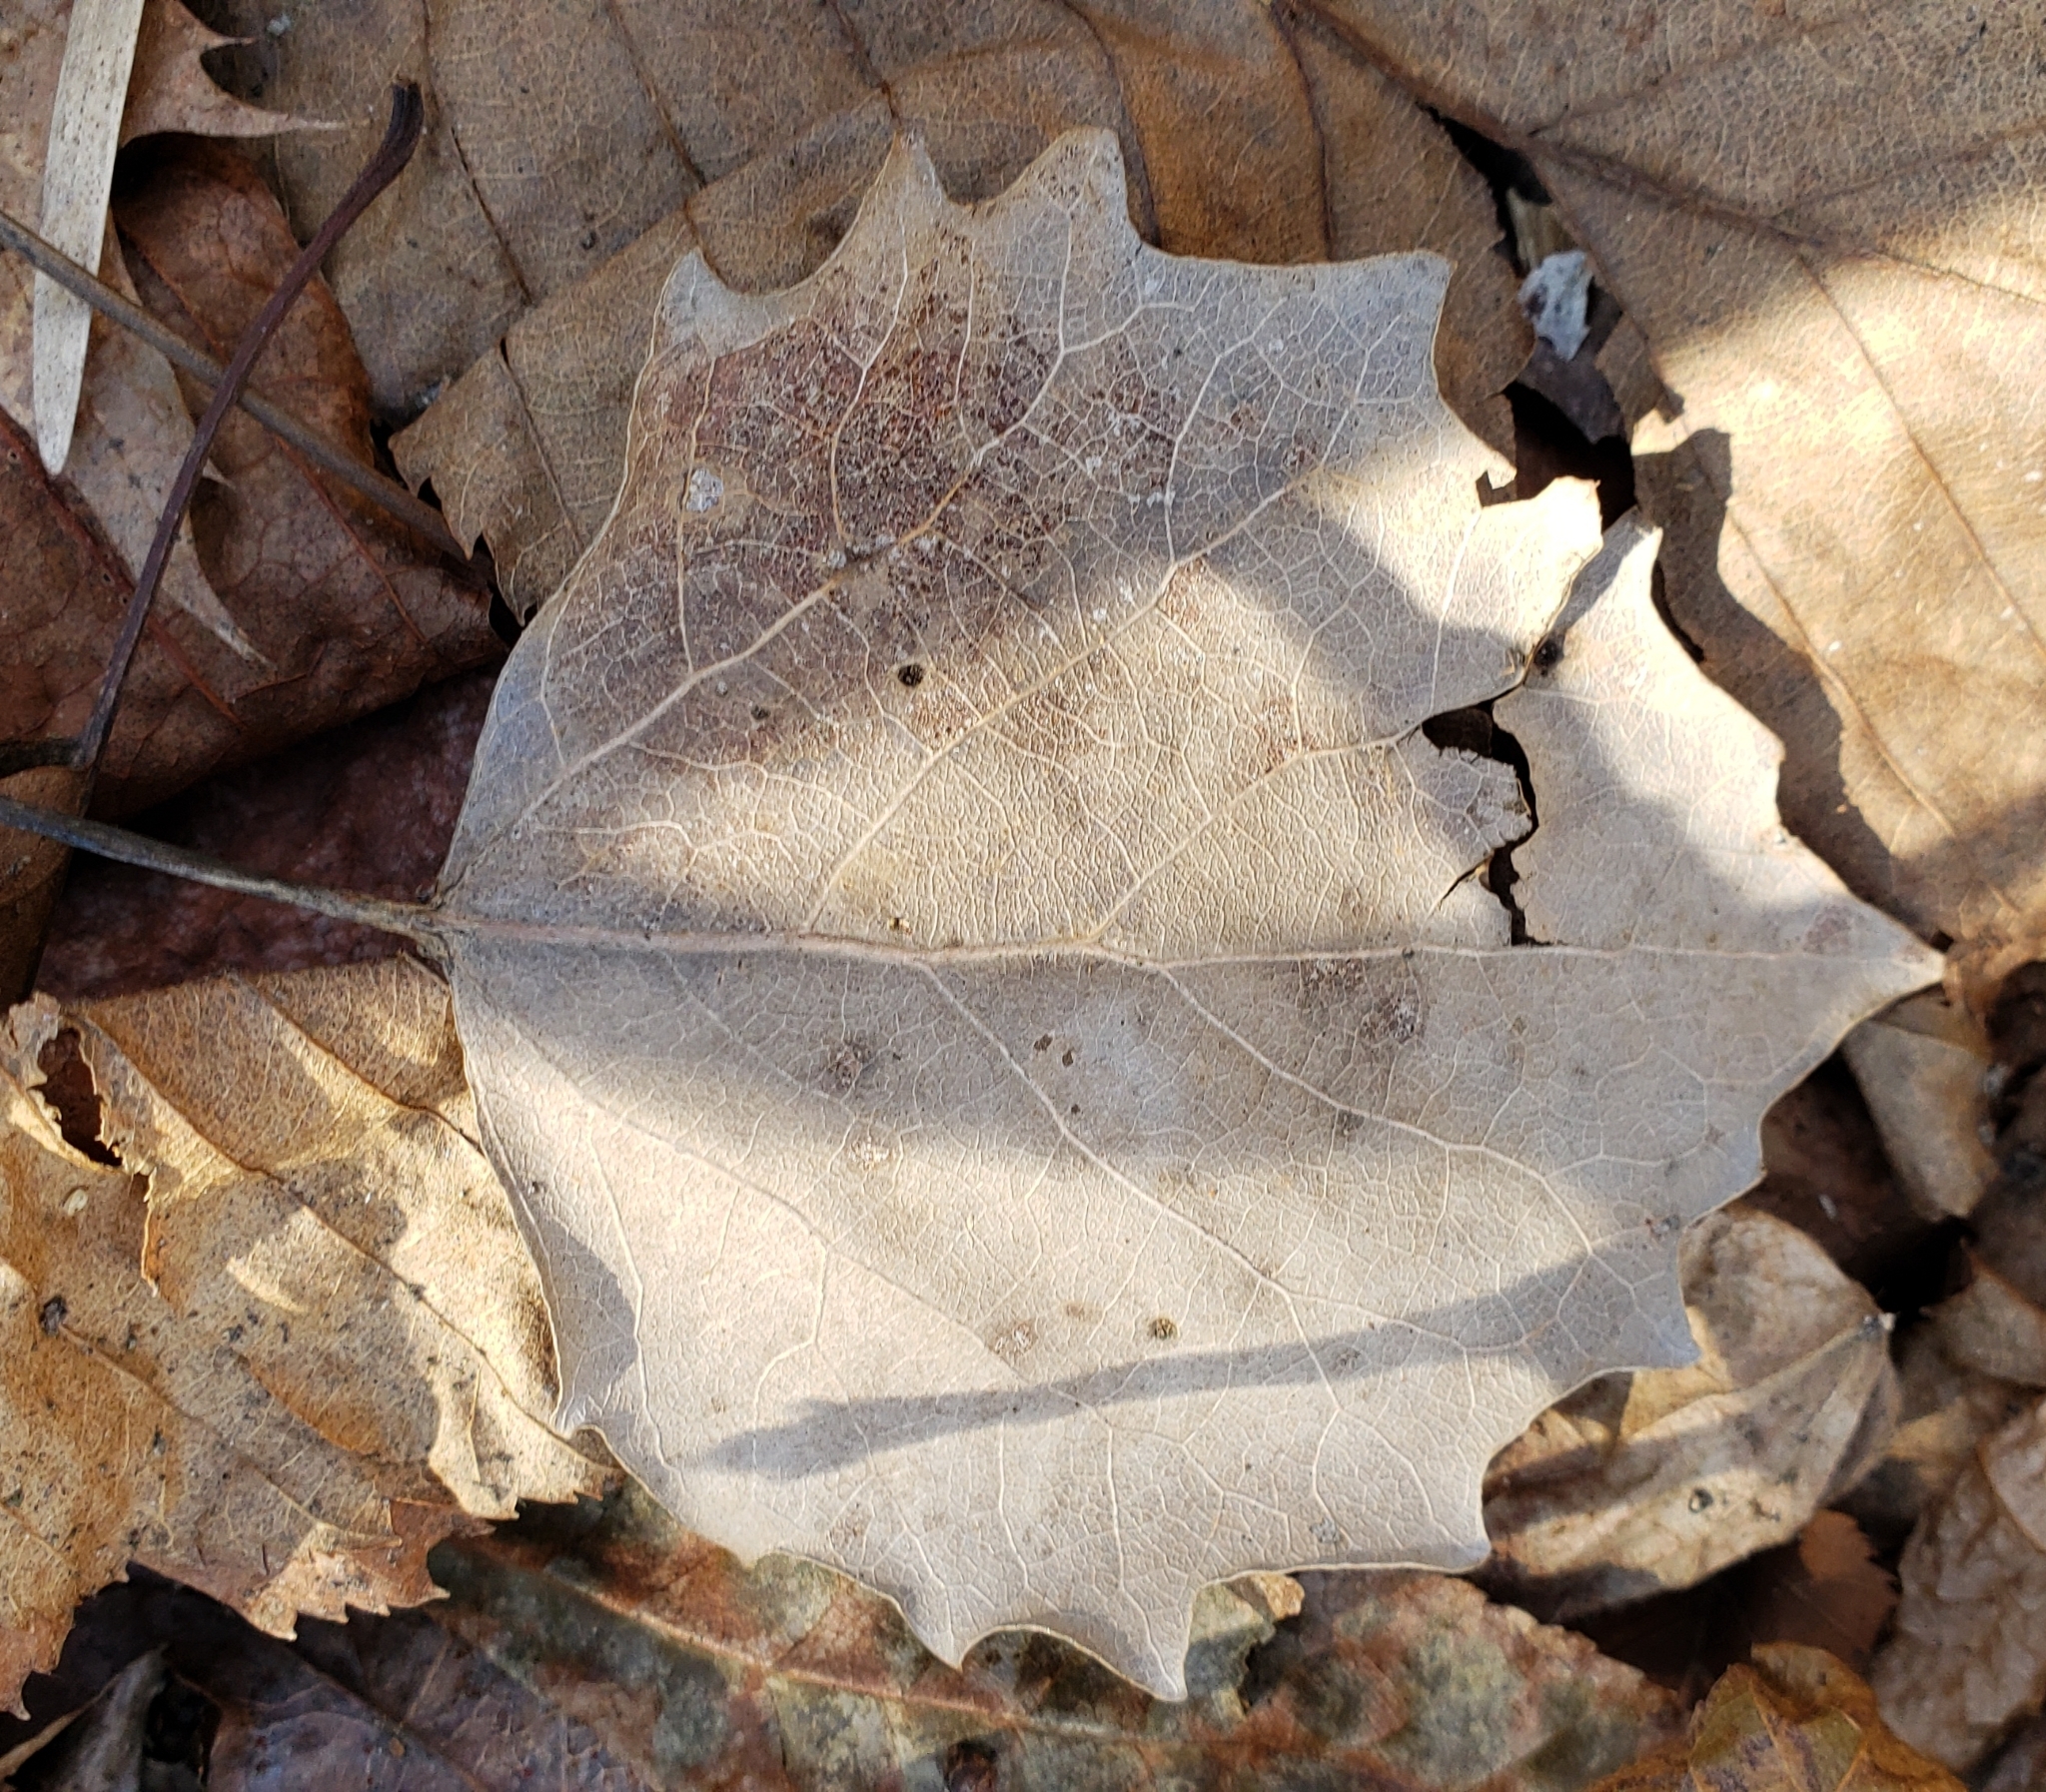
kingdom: Plantae
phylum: Tracheophyta
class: Magnoliopsida
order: Malpighiales
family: Salicaceae
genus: Populus
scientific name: Populus grandidentata
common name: Bigtooth aspen
